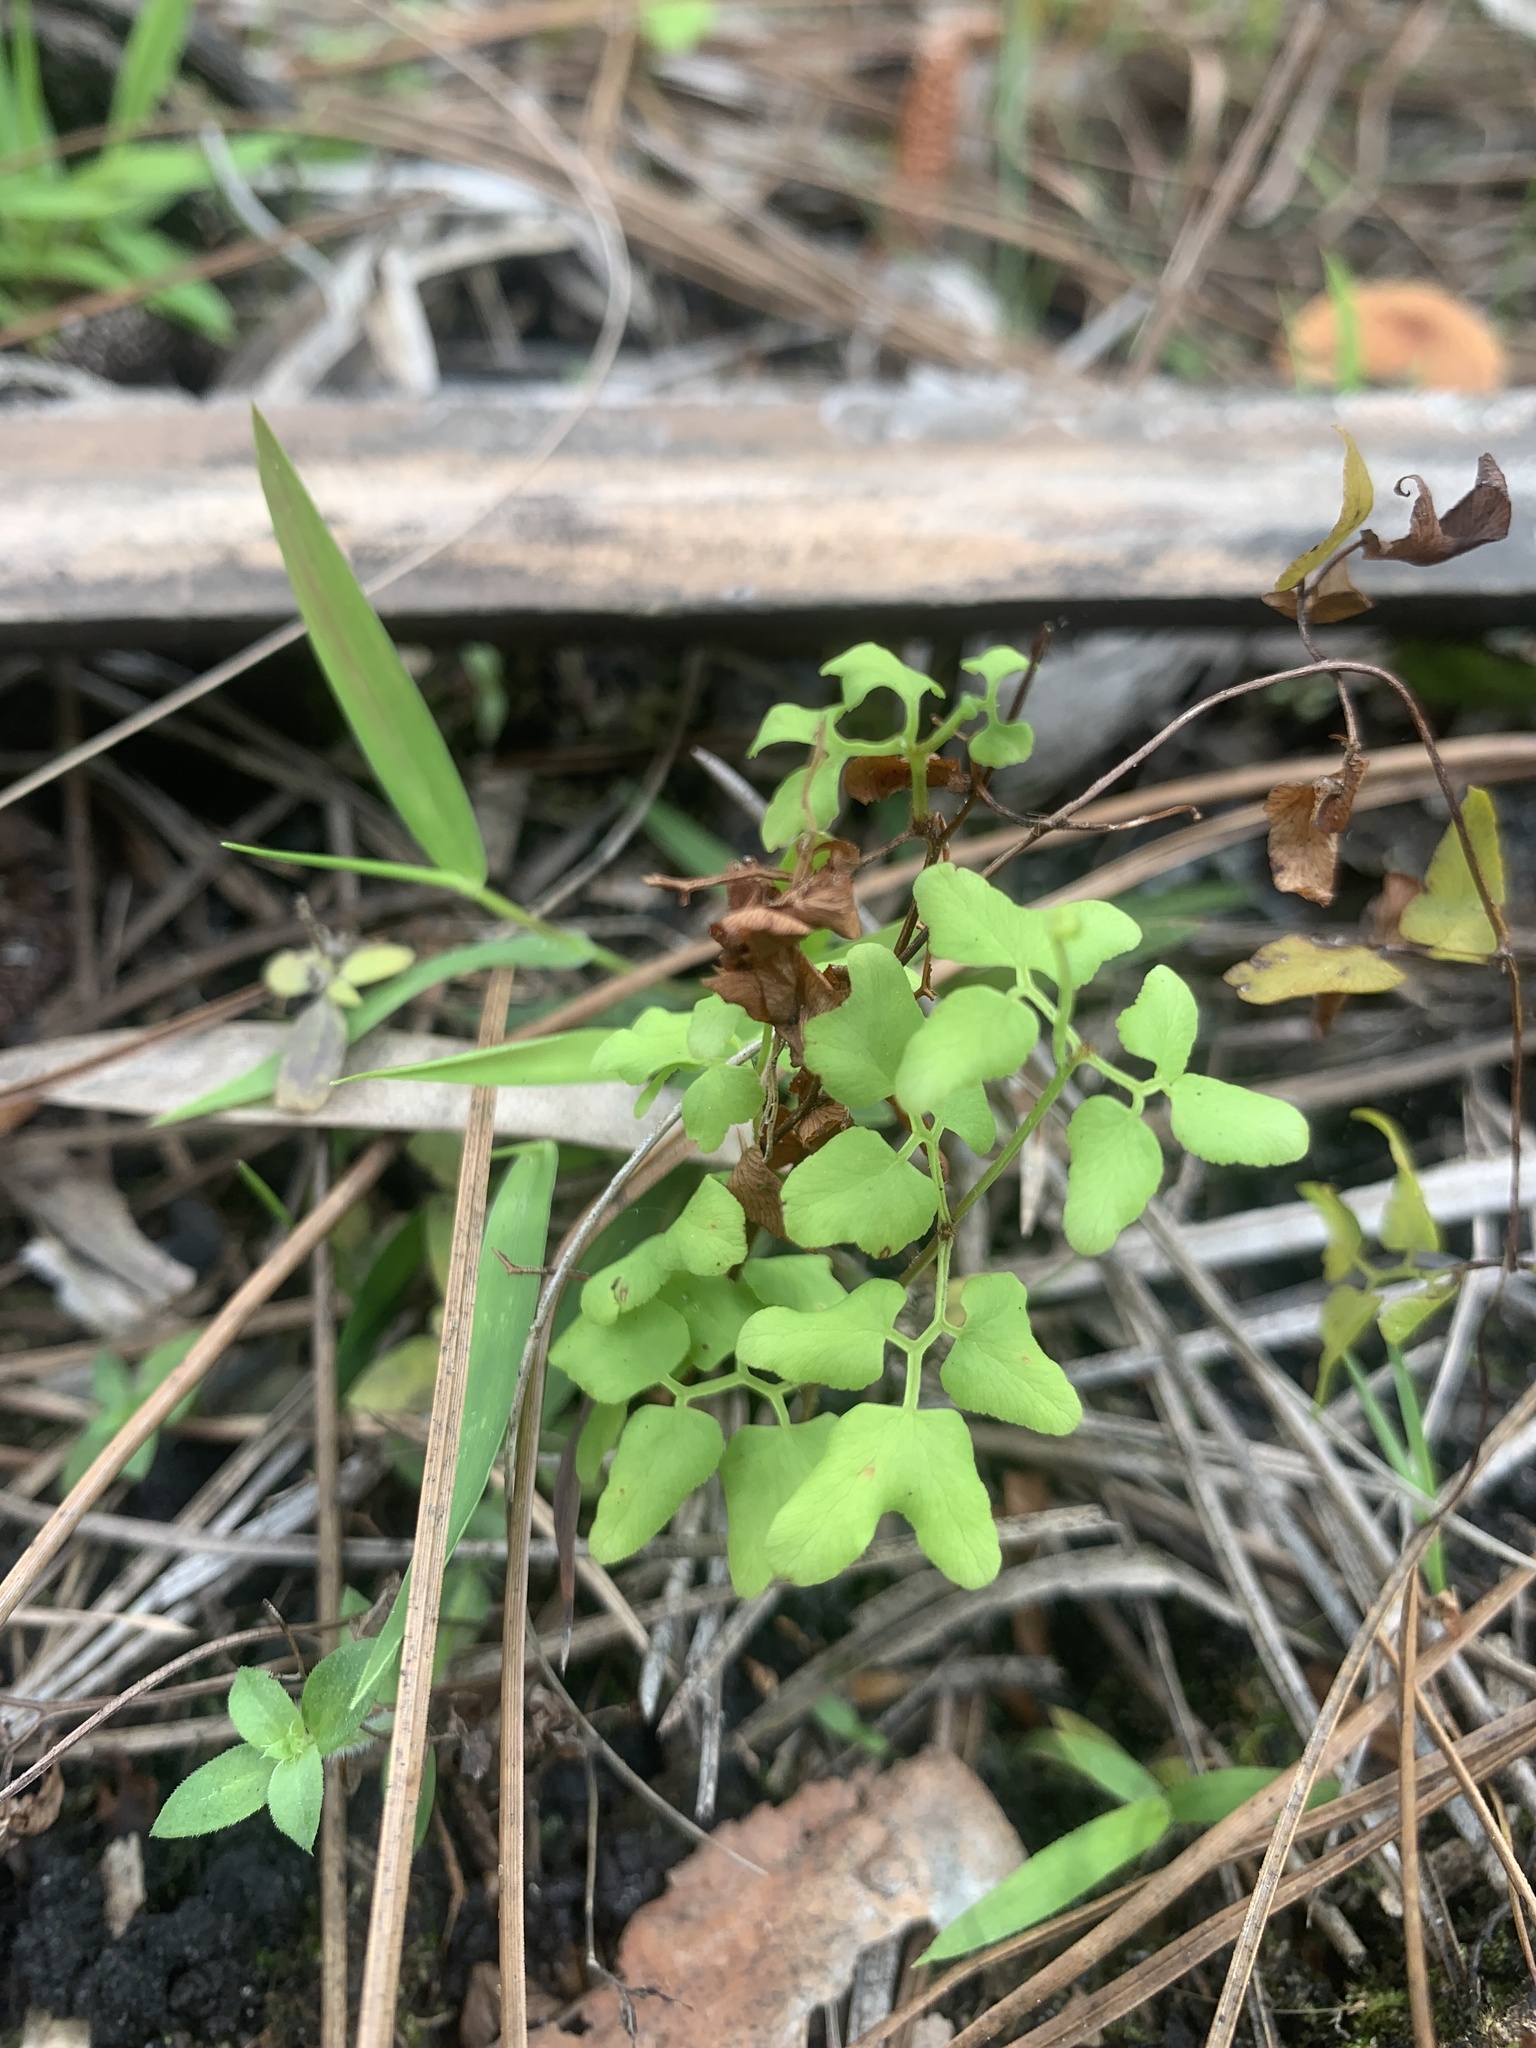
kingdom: Plantae
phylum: Tracheophyta
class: Polypodiopsida
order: Schizaeales
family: Lygodiaceae
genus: Lygodium
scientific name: Lygodium microphyllum
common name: Small-leaf climbing fern
